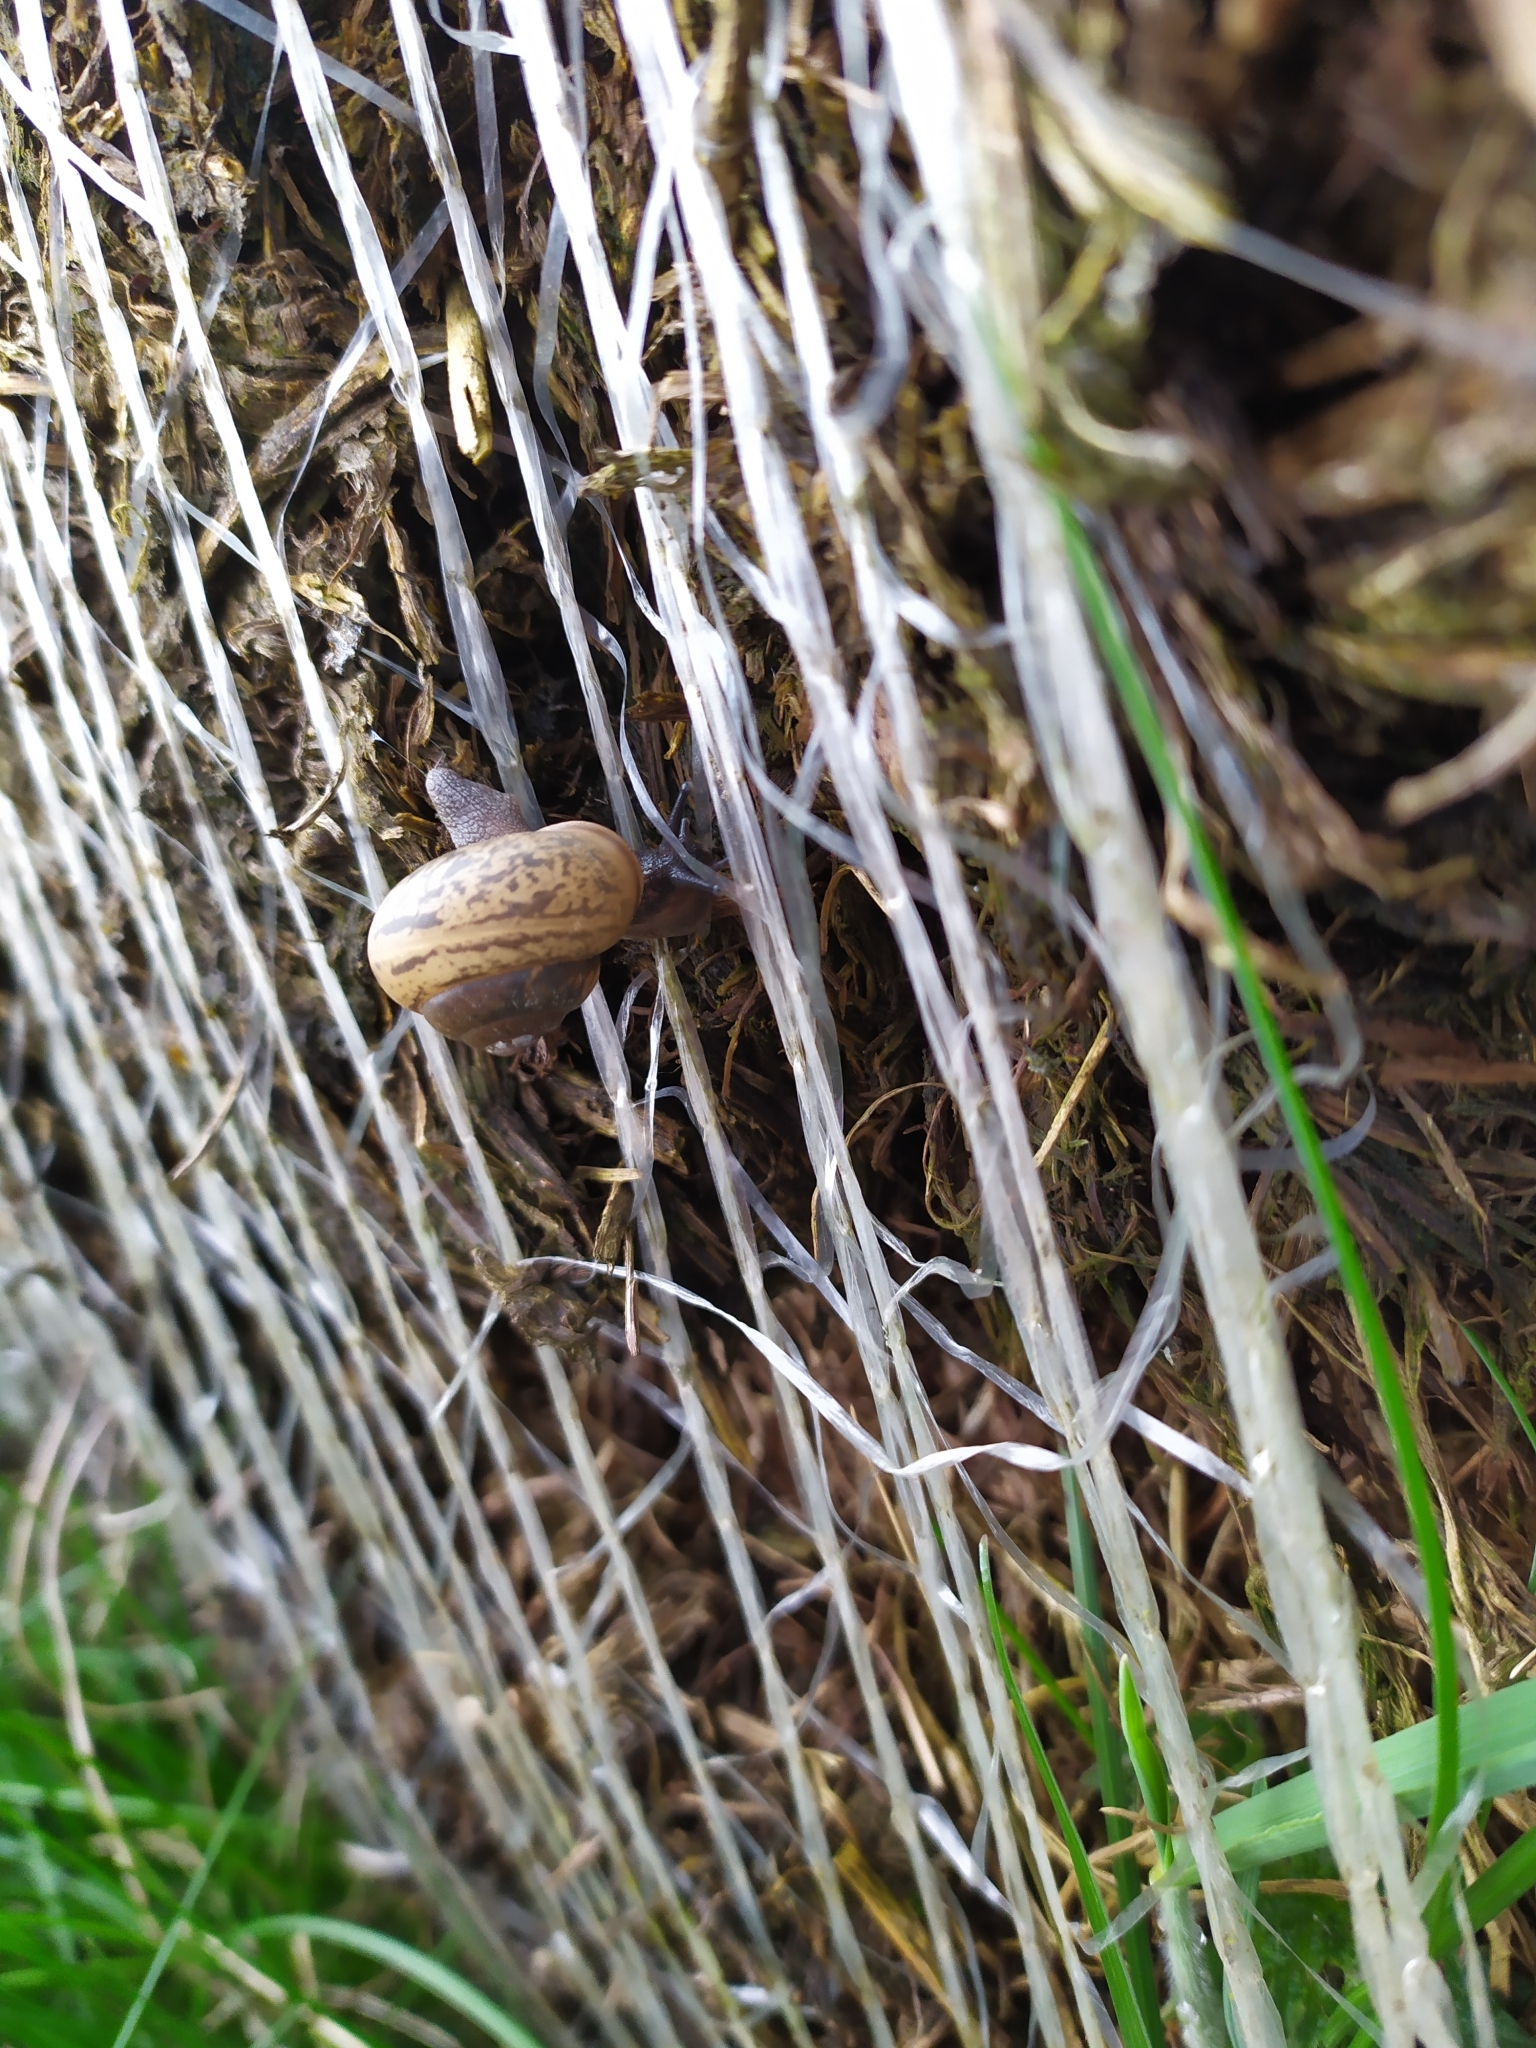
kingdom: Animalia
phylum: Mollusca
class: Gastropoda
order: Stylommatophora
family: Camaenidae
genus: Fruticicola
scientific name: Fruticicola fruticum
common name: Bush snail
